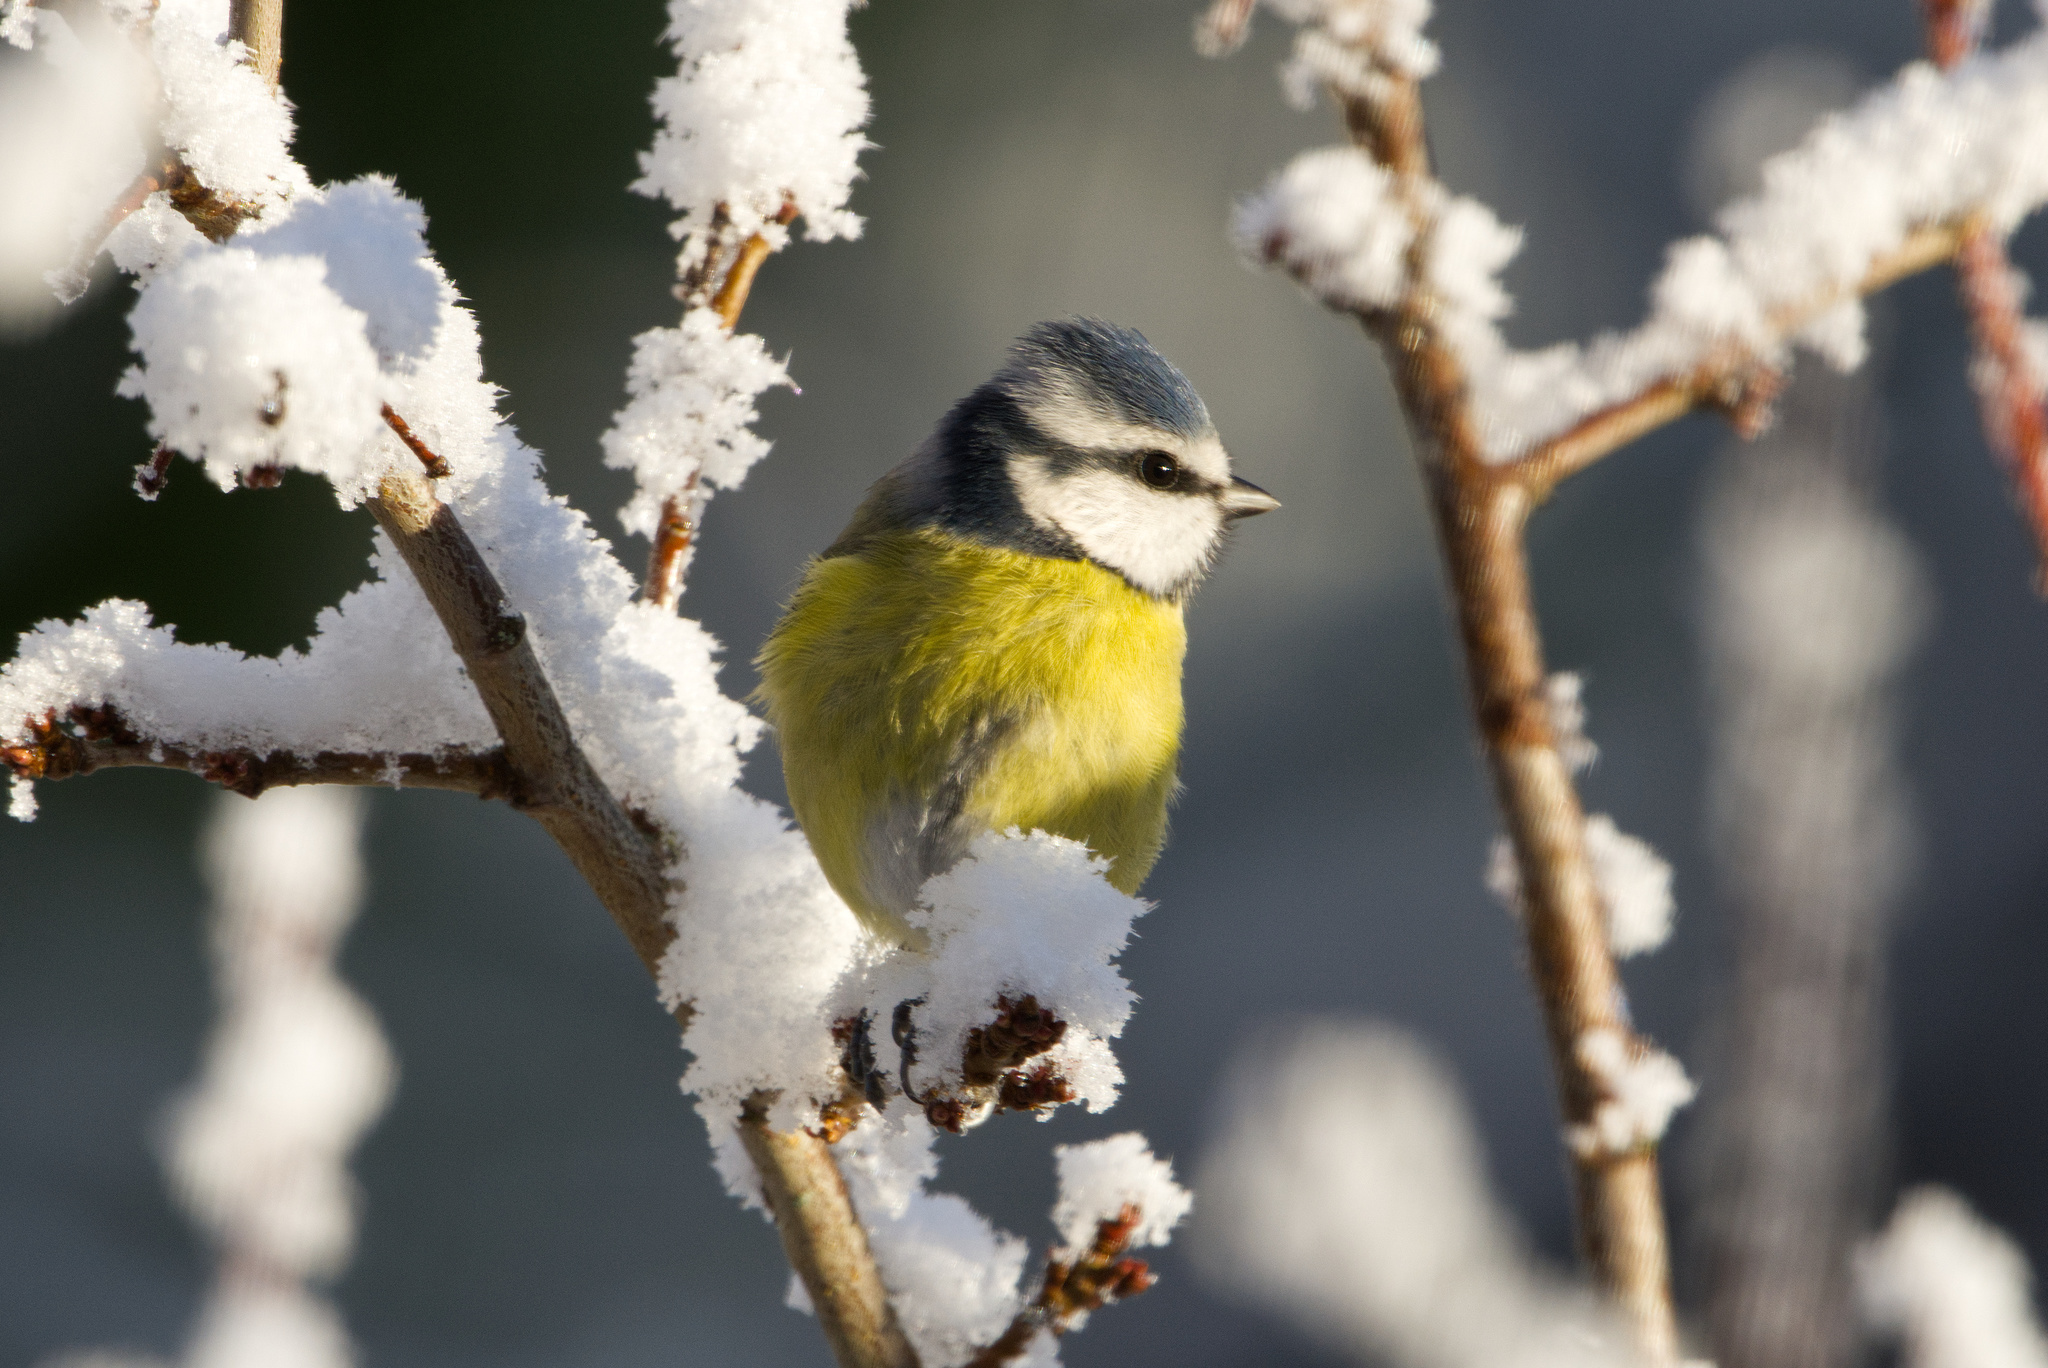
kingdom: Animalia
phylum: Chordata
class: Aves
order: Passeriformes
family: Paridae
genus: Cyanistes
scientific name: Cyanistes caeruleus
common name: Eurasian blue tit
